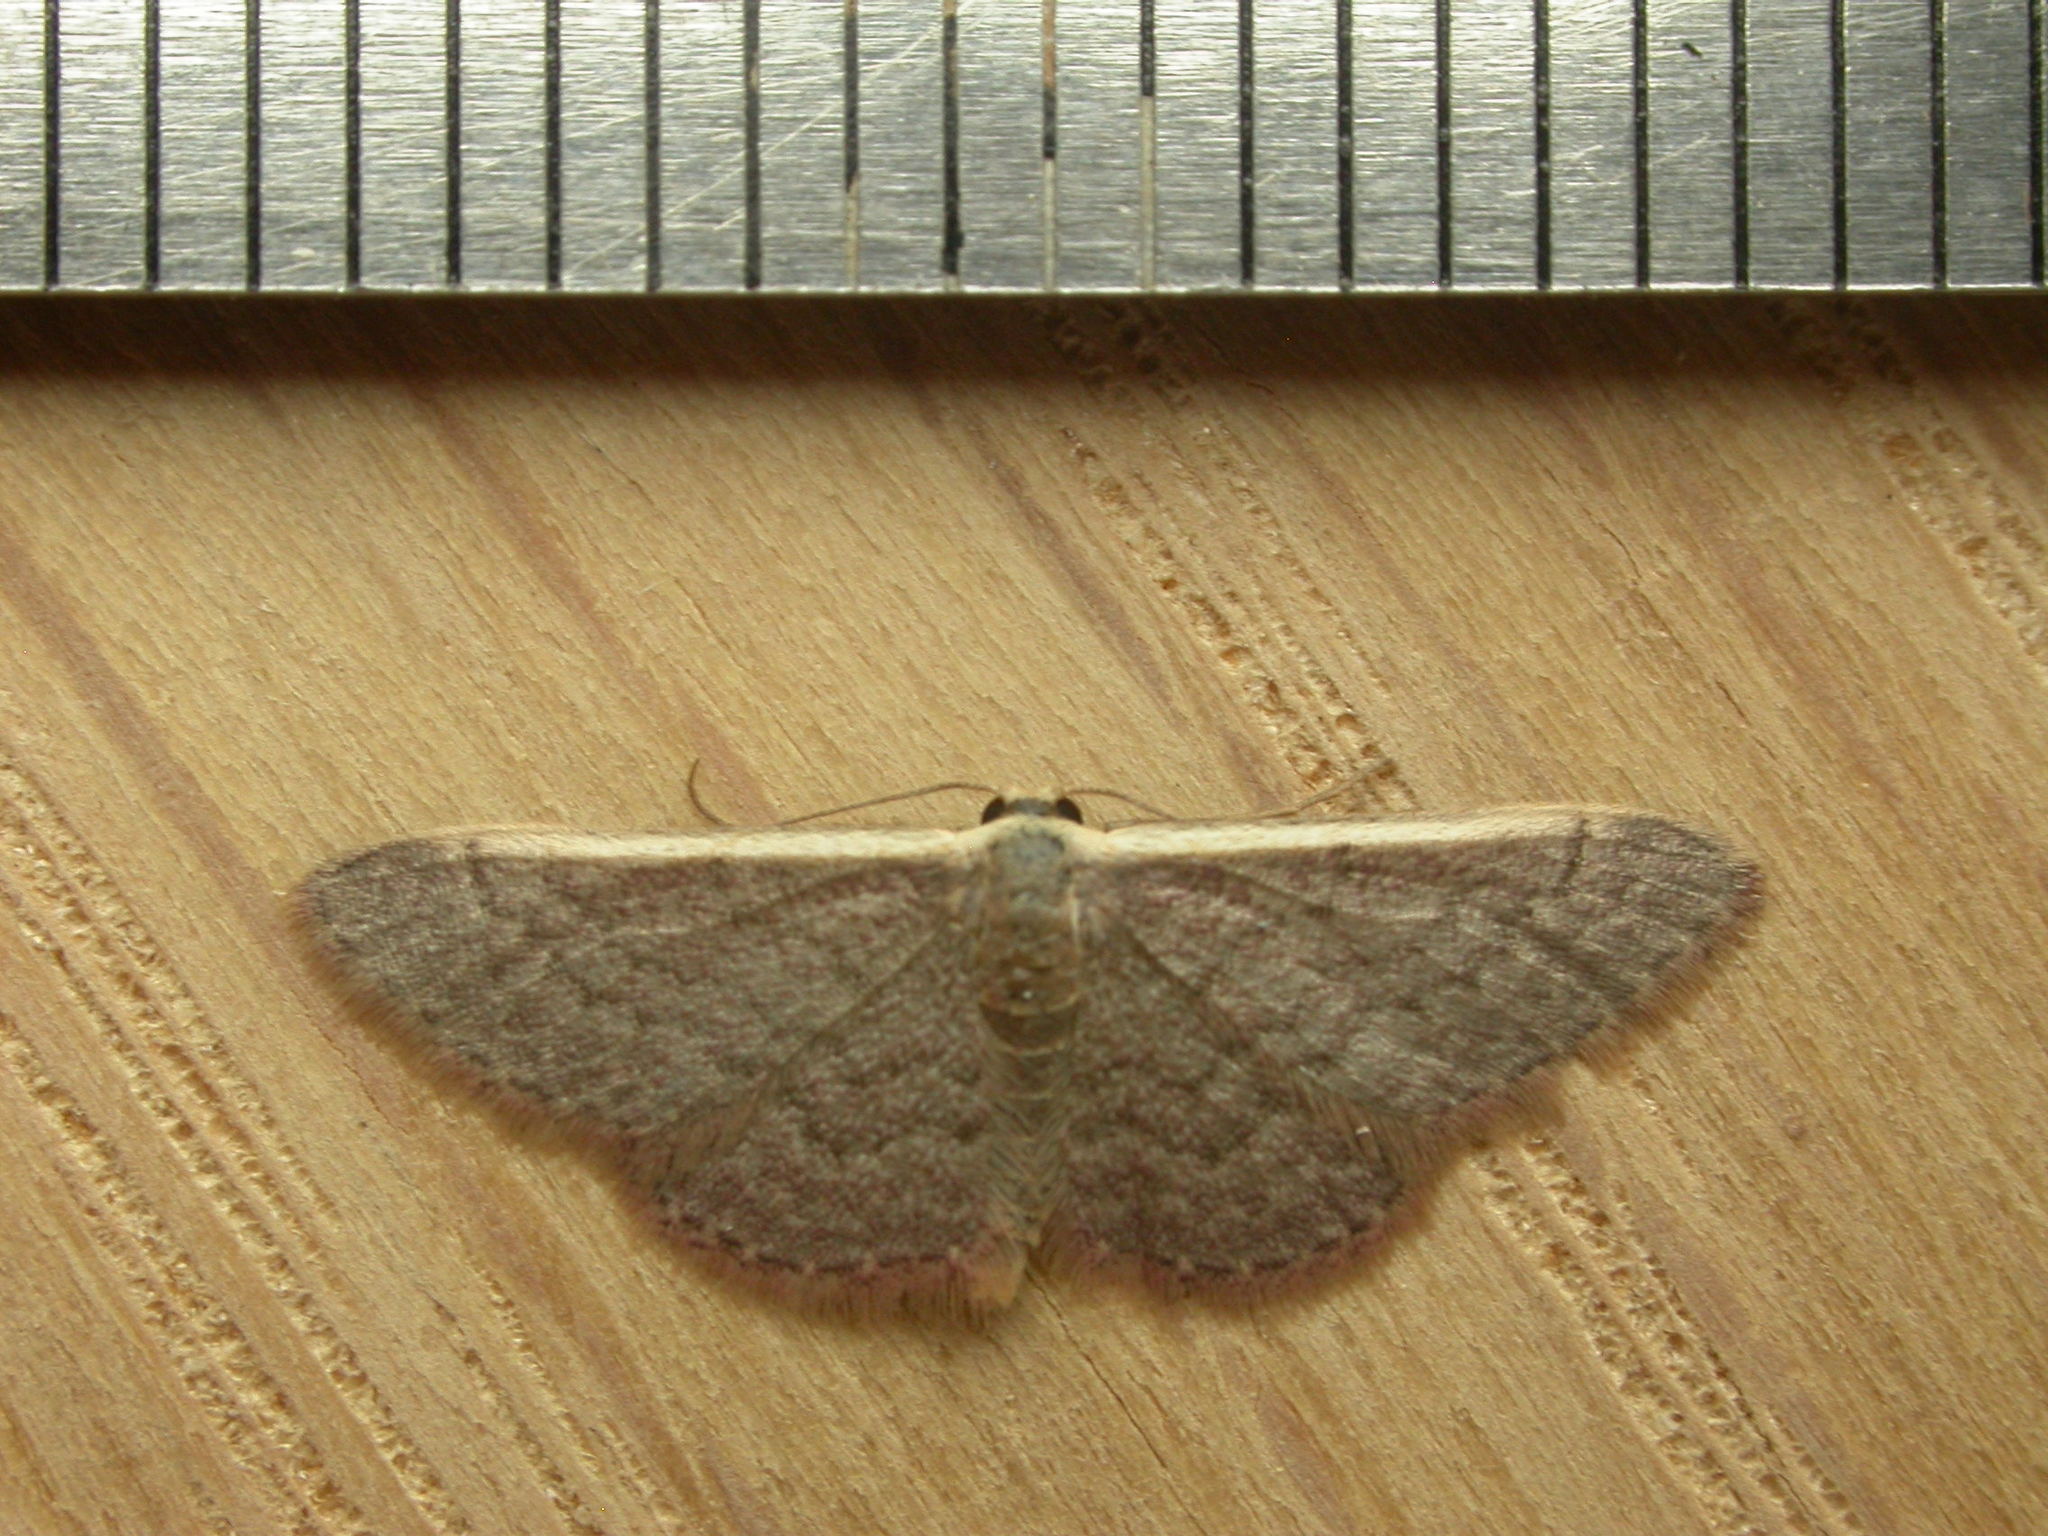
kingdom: Animalia
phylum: Arthropoda
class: Insecta
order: Lepidoptera
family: Geometridae
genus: Idaea
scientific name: Idaea costaria
